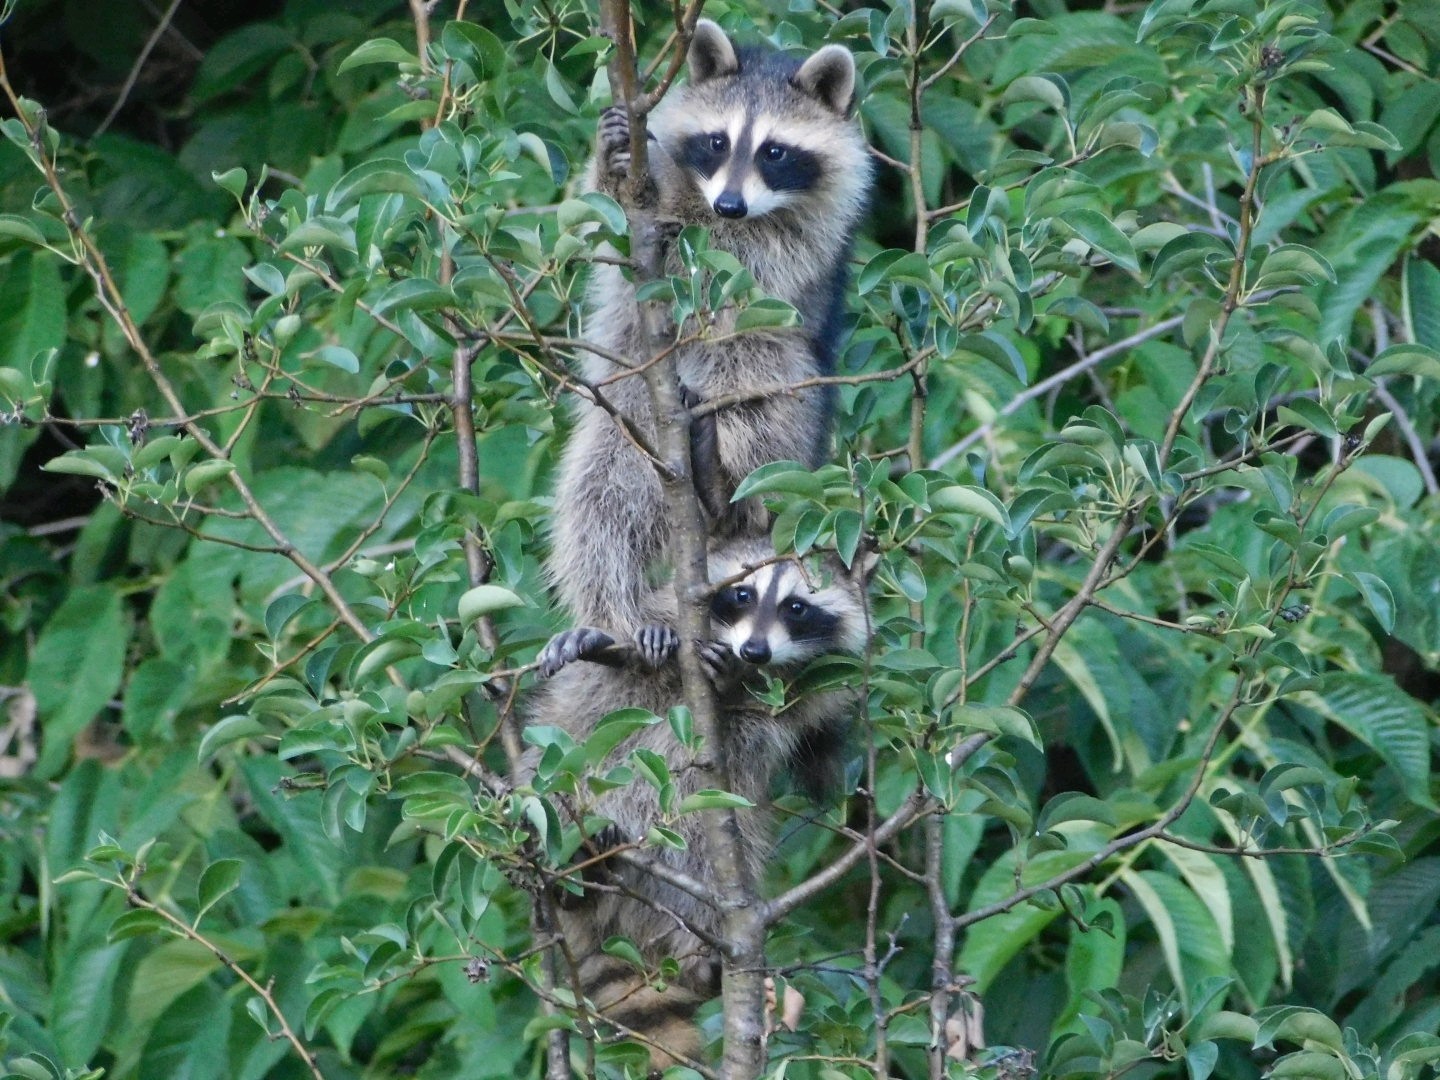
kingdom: Animalia
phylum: Chordata
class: Mammalia
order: Carnivora
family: Procyonidae
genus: Procyon
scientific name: Procyon lotor
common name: Raccoon
